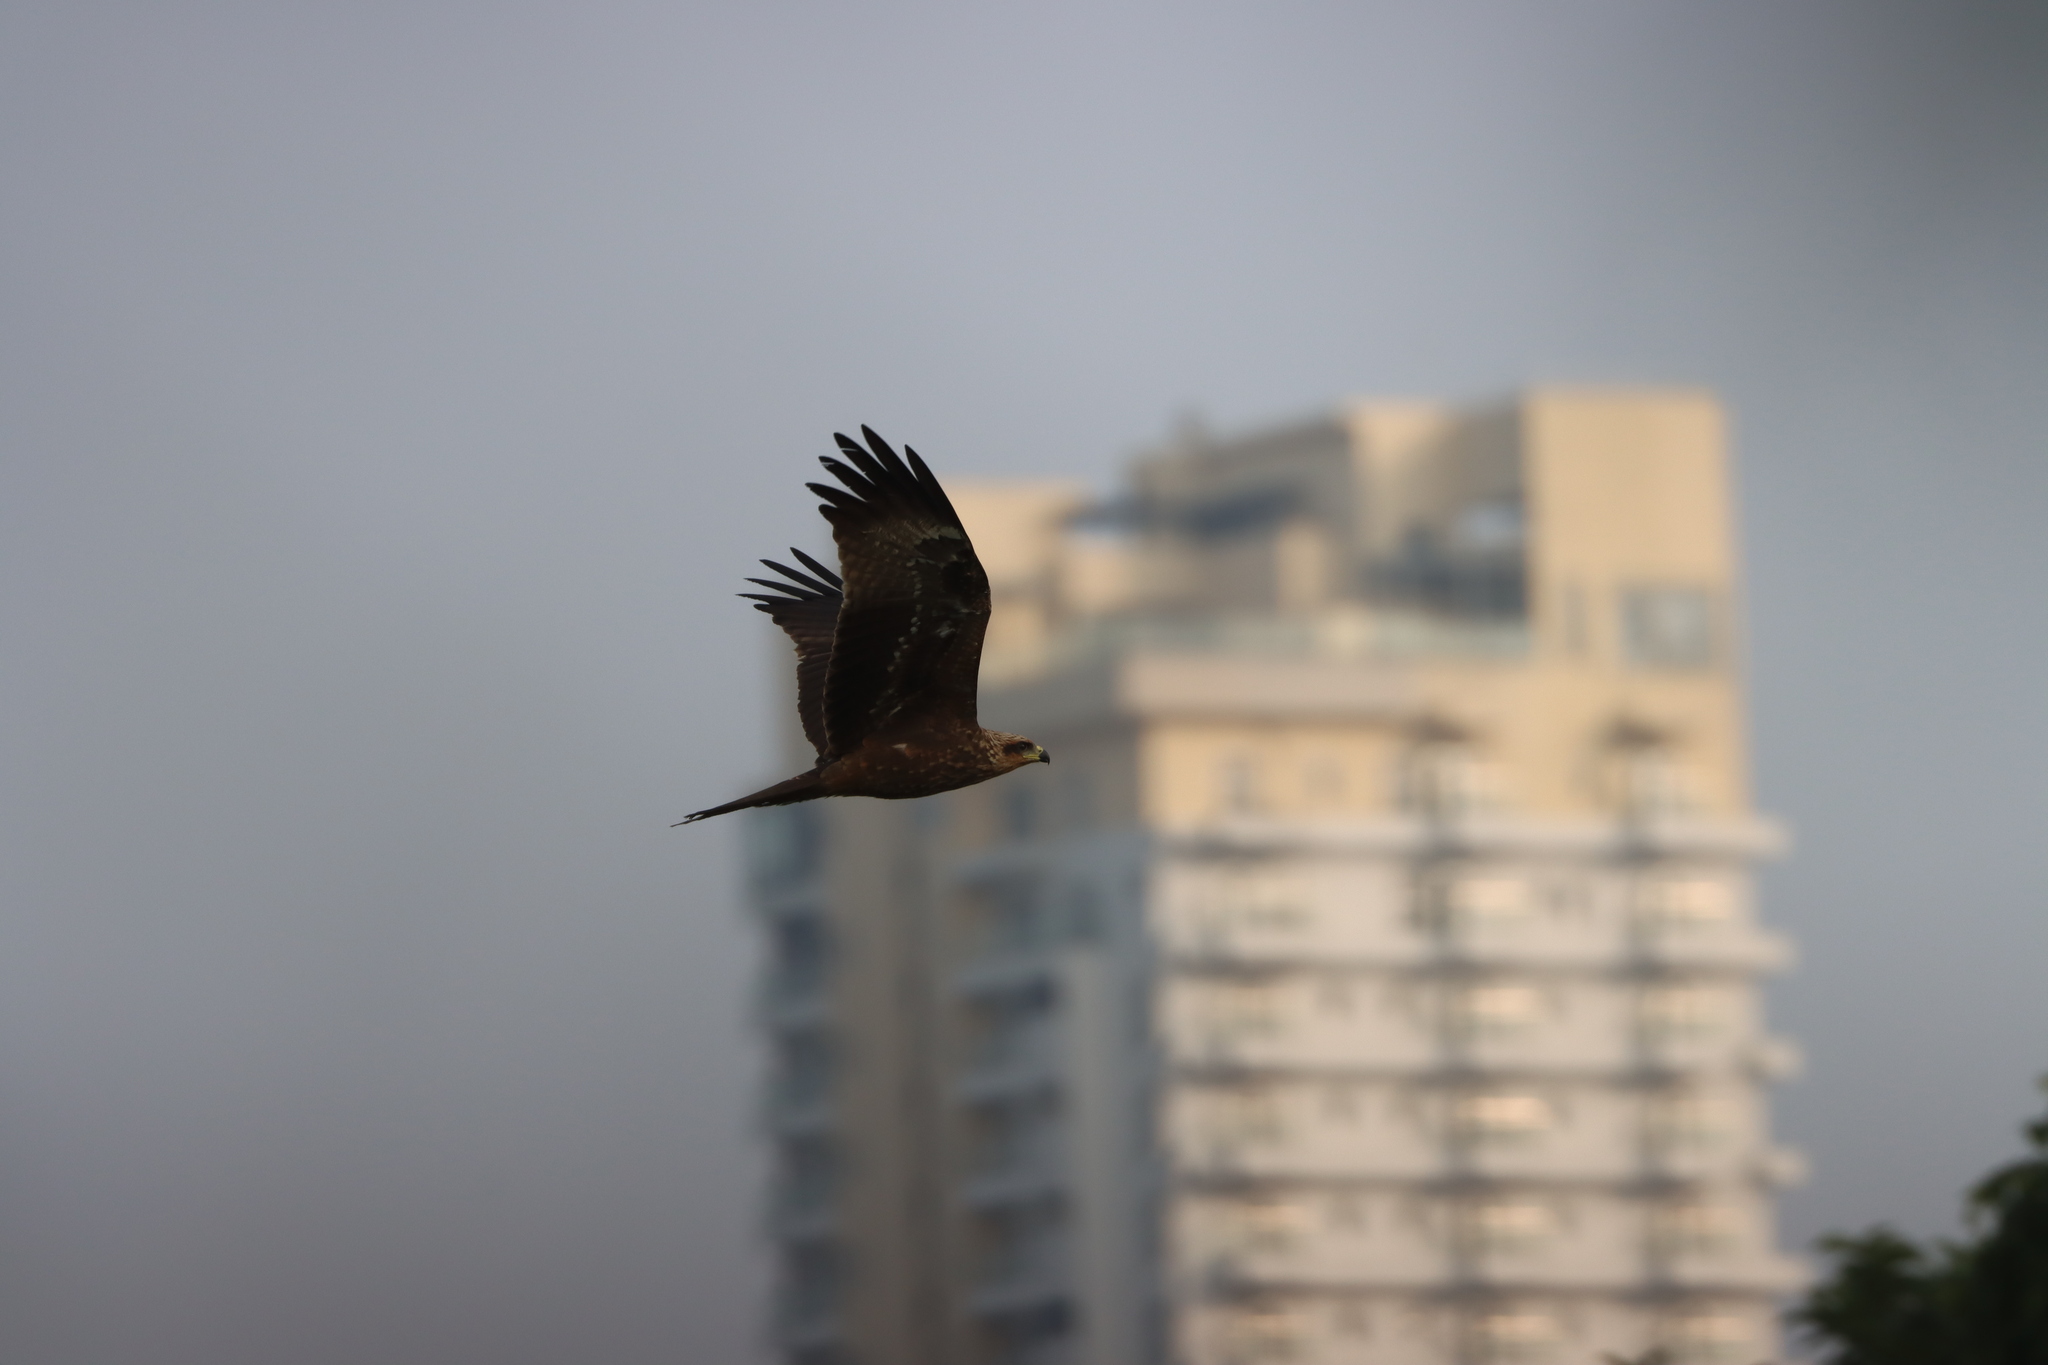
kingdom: Animalia
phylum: Chordata
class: Aves
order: Accipitriformes
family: Accipitridae
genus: Milvus
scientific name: Milvus migrans
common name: Black kite
